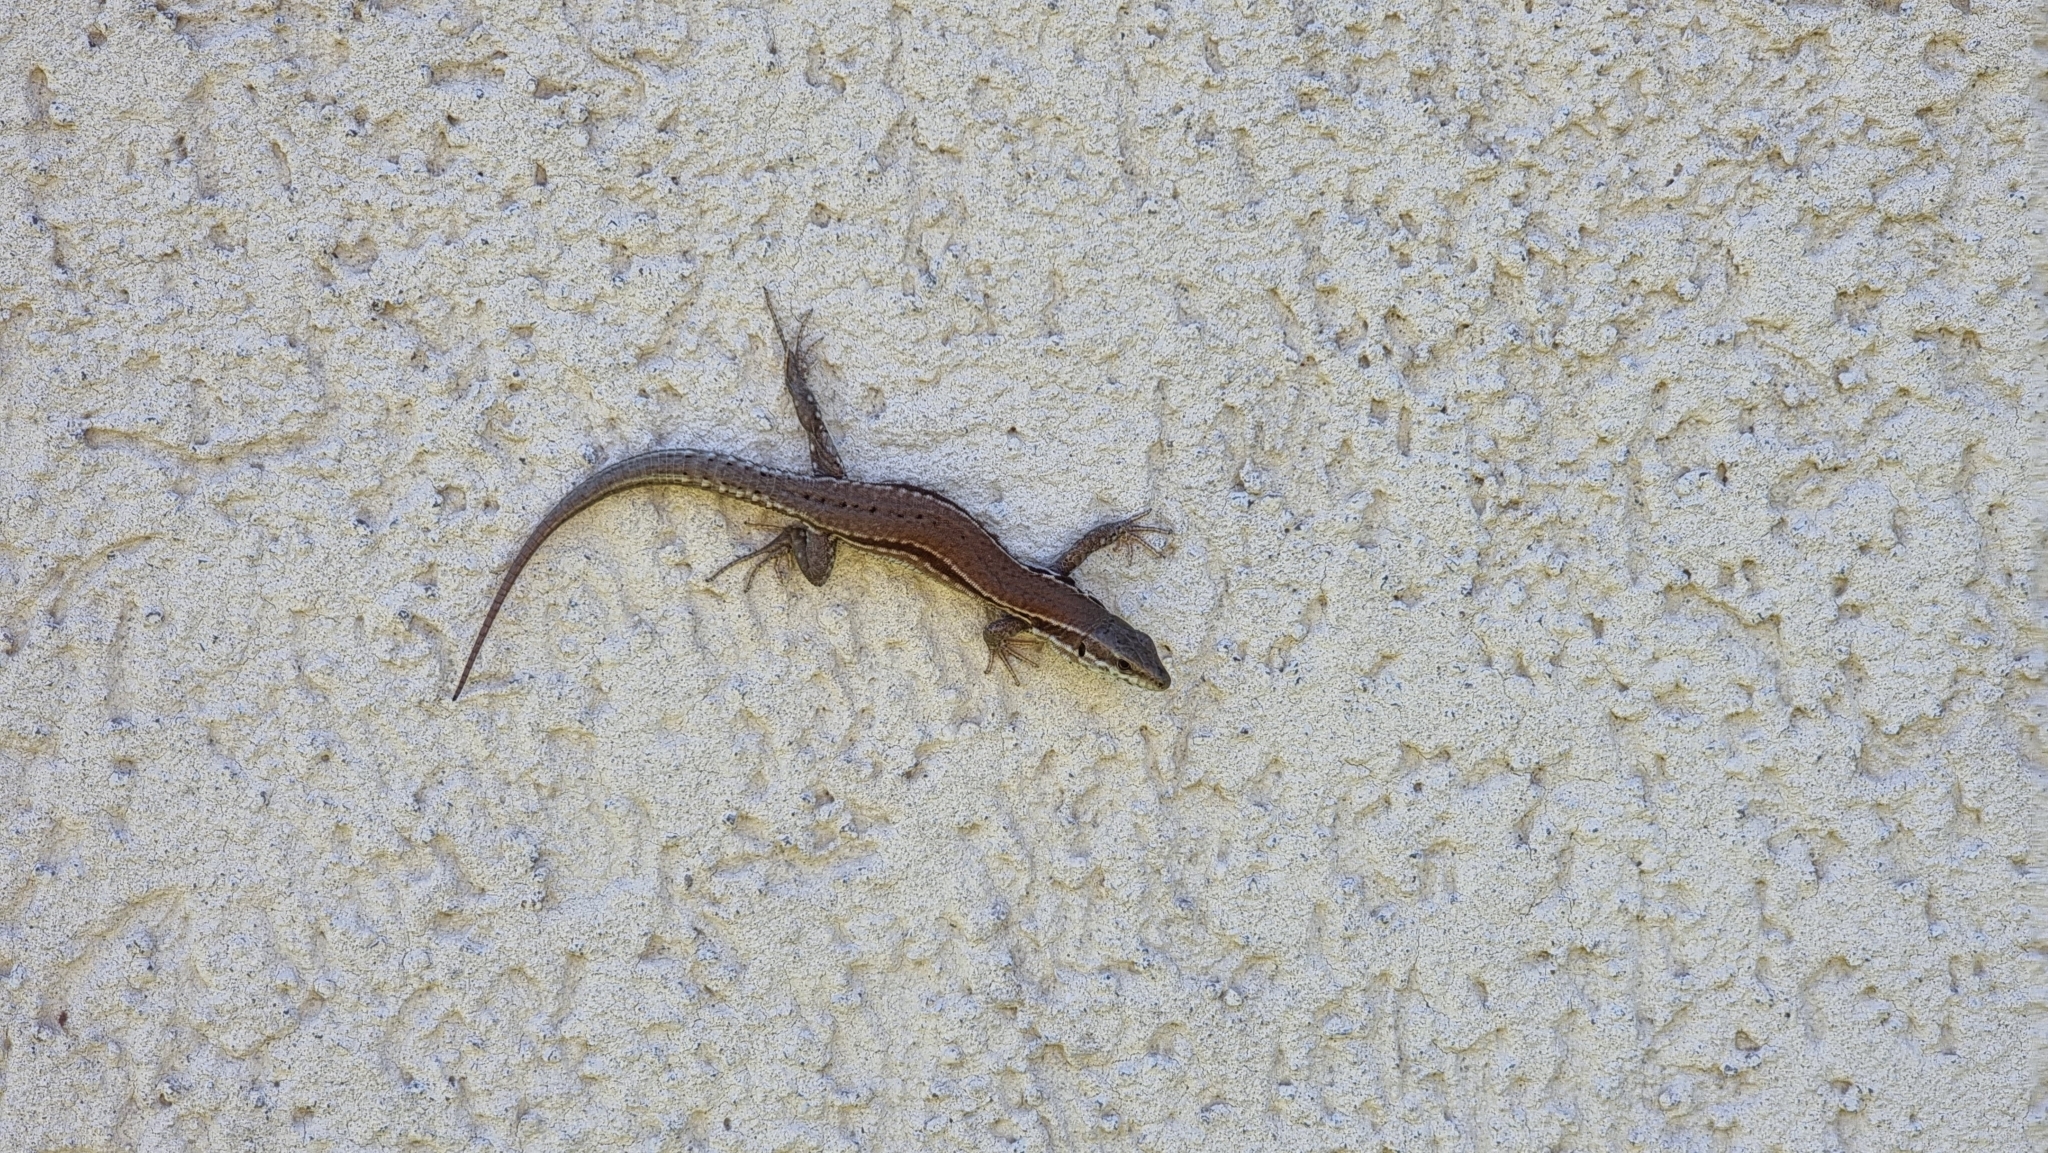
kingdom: Animalia
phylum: Chordata
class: Squamata
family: Lacertidae
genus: Podarcis
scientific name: Podarcis muralis
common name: Common wall lizard
